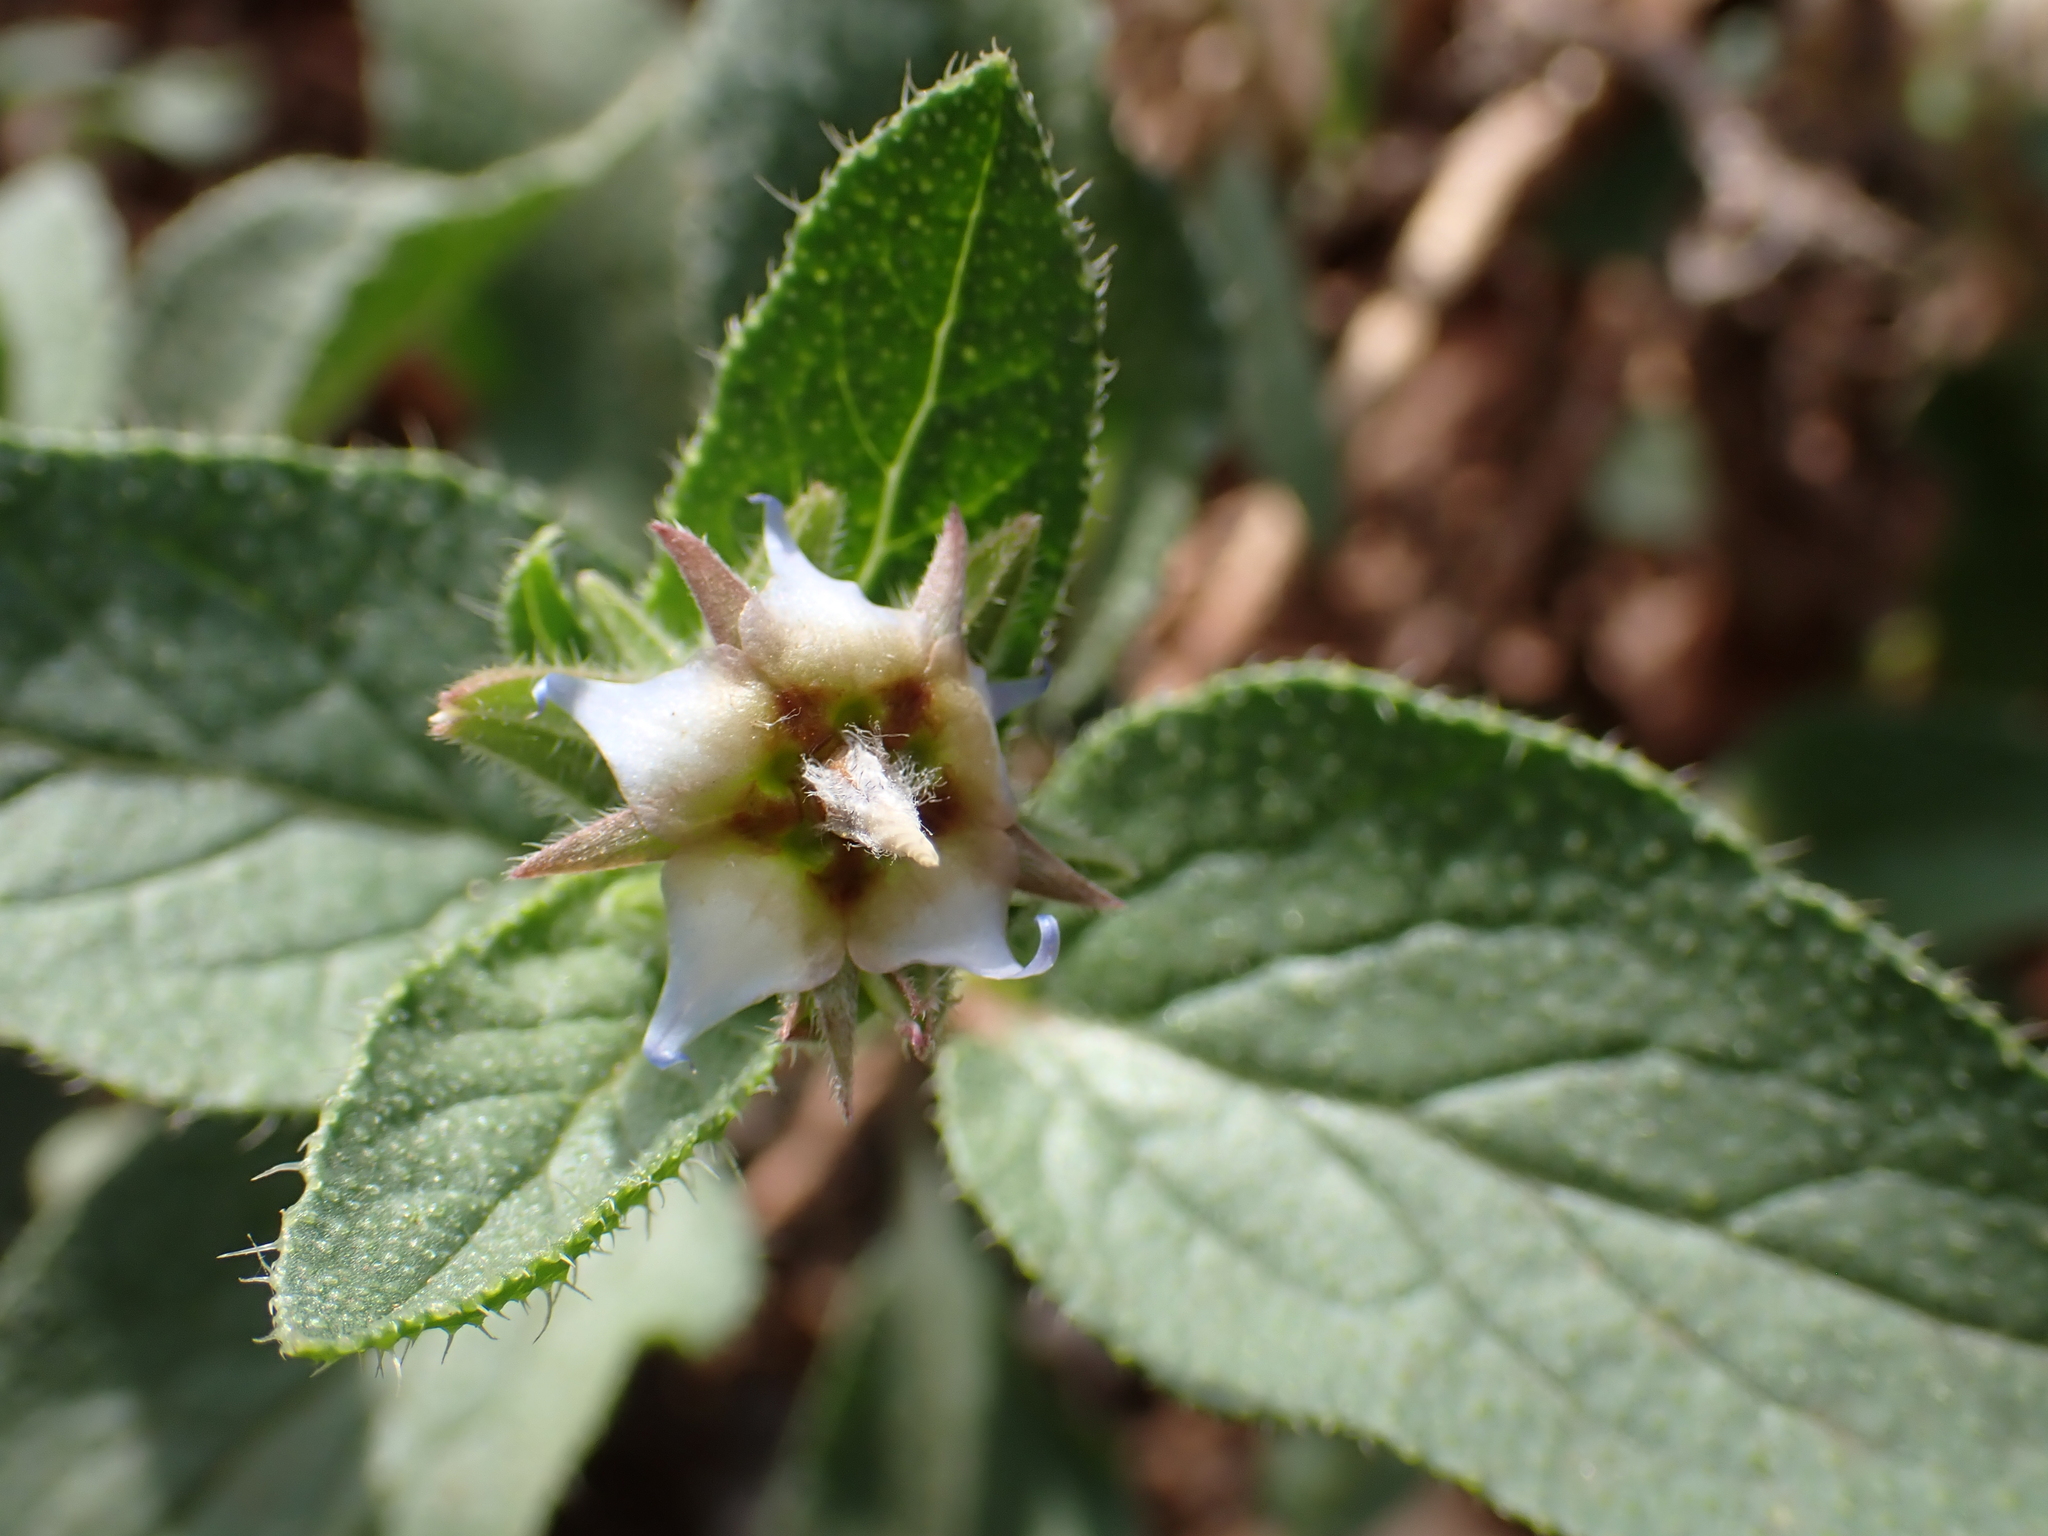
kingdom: Plantae
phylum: Tracheophyta
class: Magnoliopsida
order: Boraginales
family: Boraginaceae
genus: Trichodesma
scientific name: Trichodesma africanum
